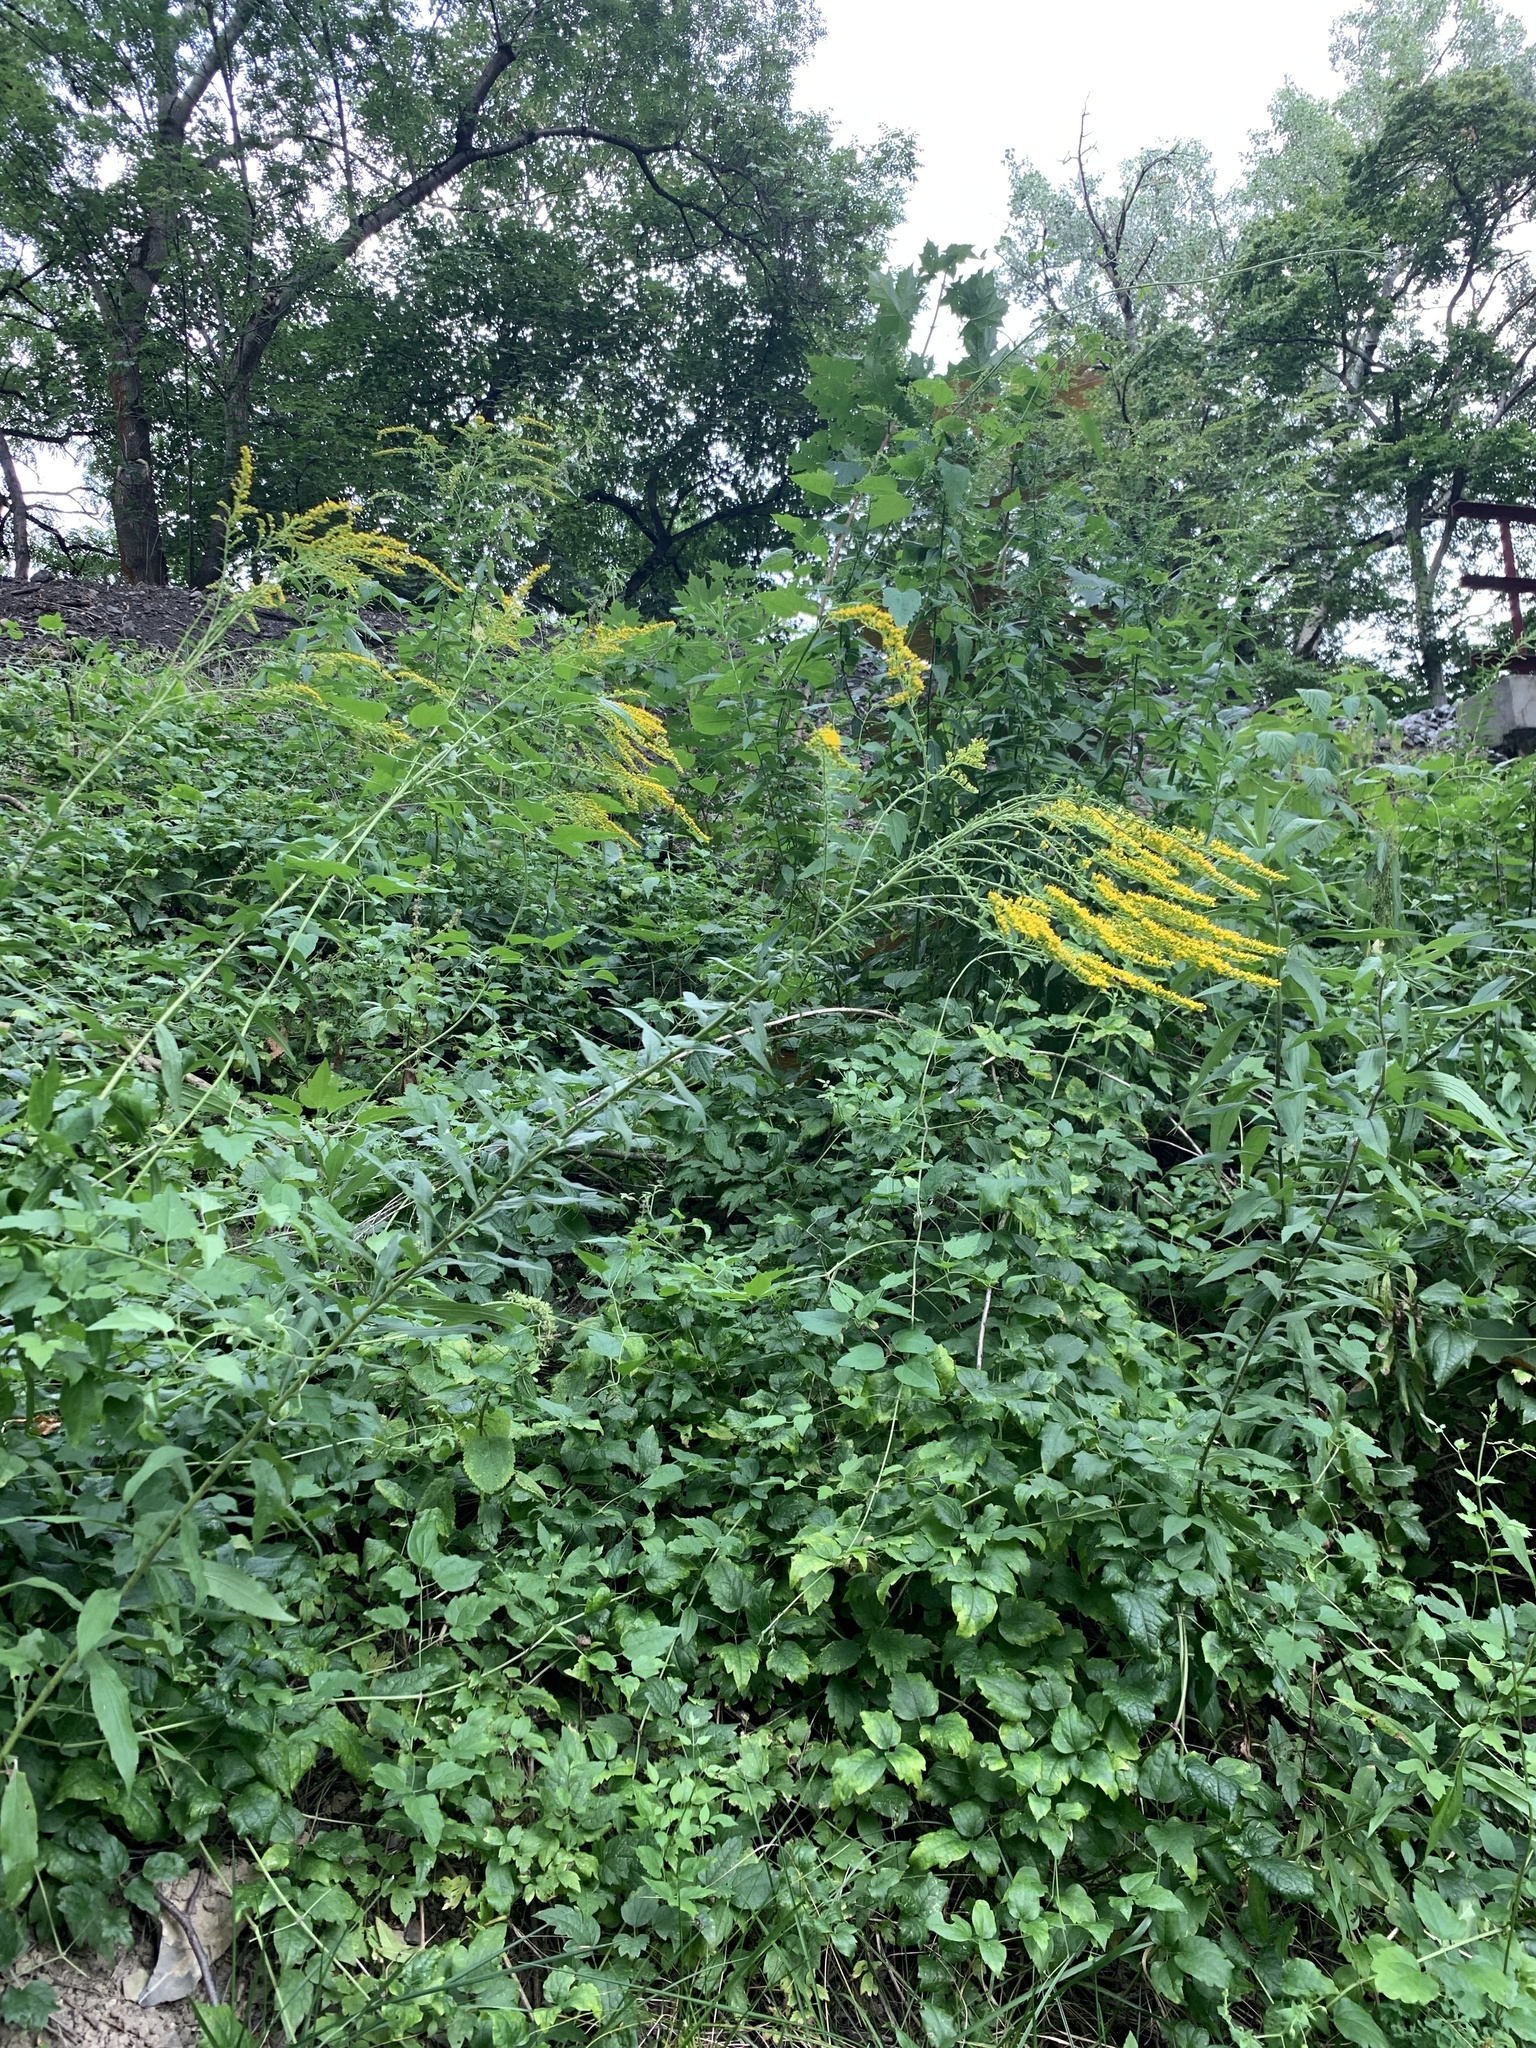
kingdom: Plantae
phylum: Tracheophyta
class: Magnoliopsida
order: Asterales
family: Asteraceae
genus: Solidago
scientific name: Solidago canadensis
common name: Canada goldenrod
